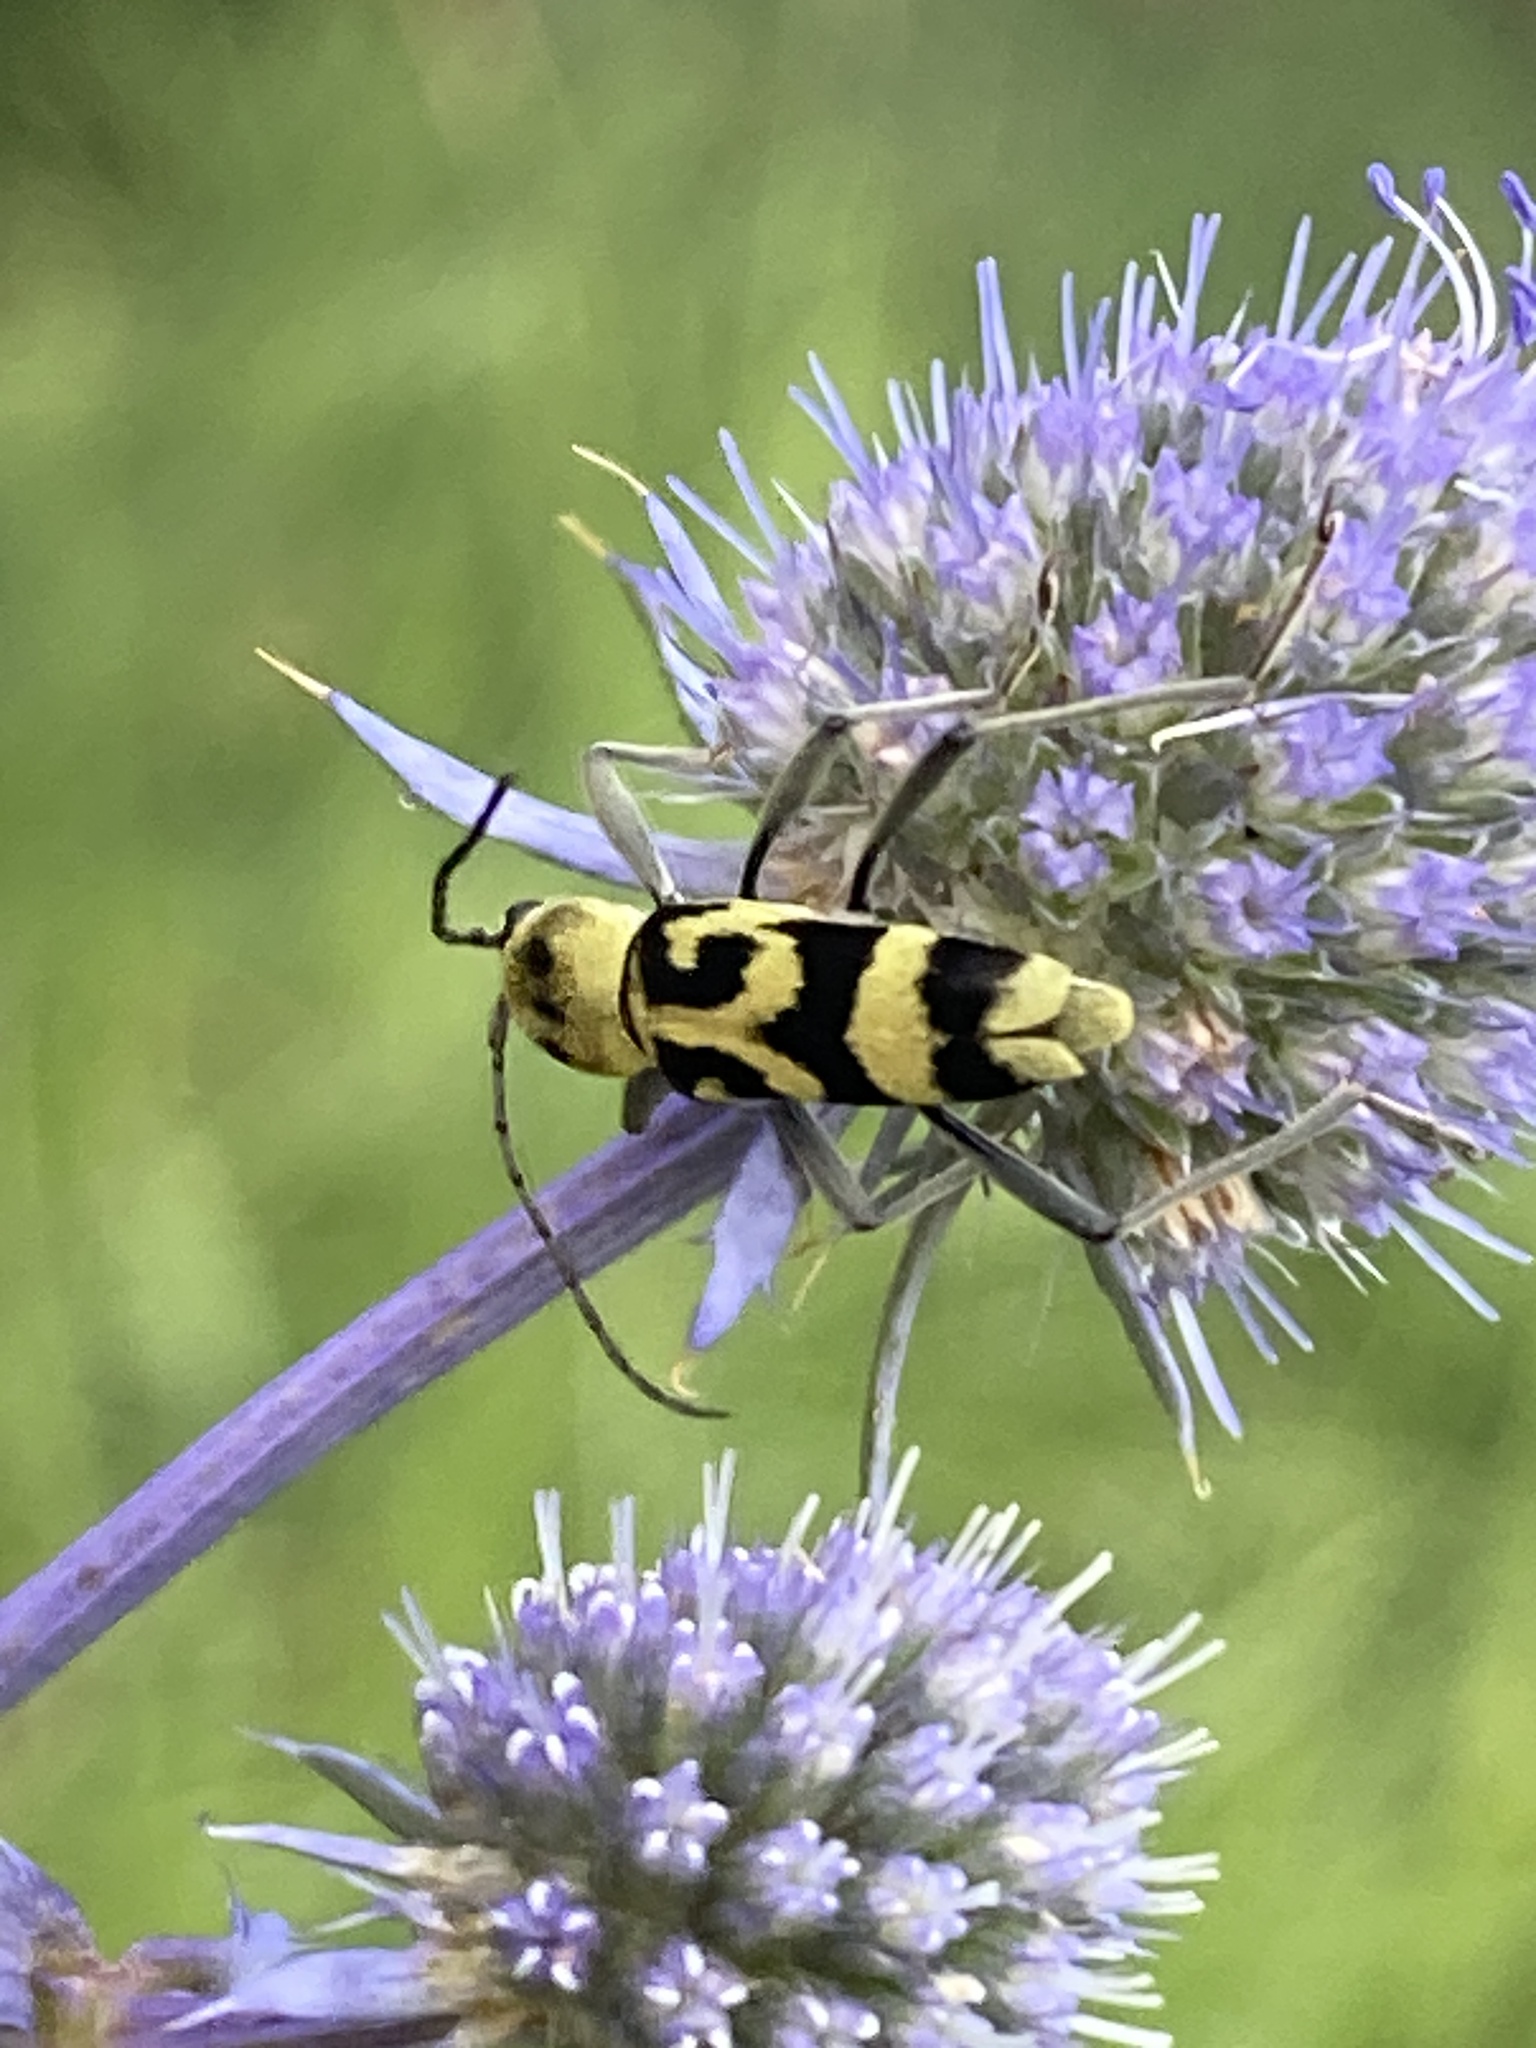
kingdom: Animalia
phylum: Arthropoda
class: Insecta
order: Coleoptera
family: Cerambycidae
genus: Chlorophorus
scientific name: Chlorophorus varius
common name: Grape wood borer
